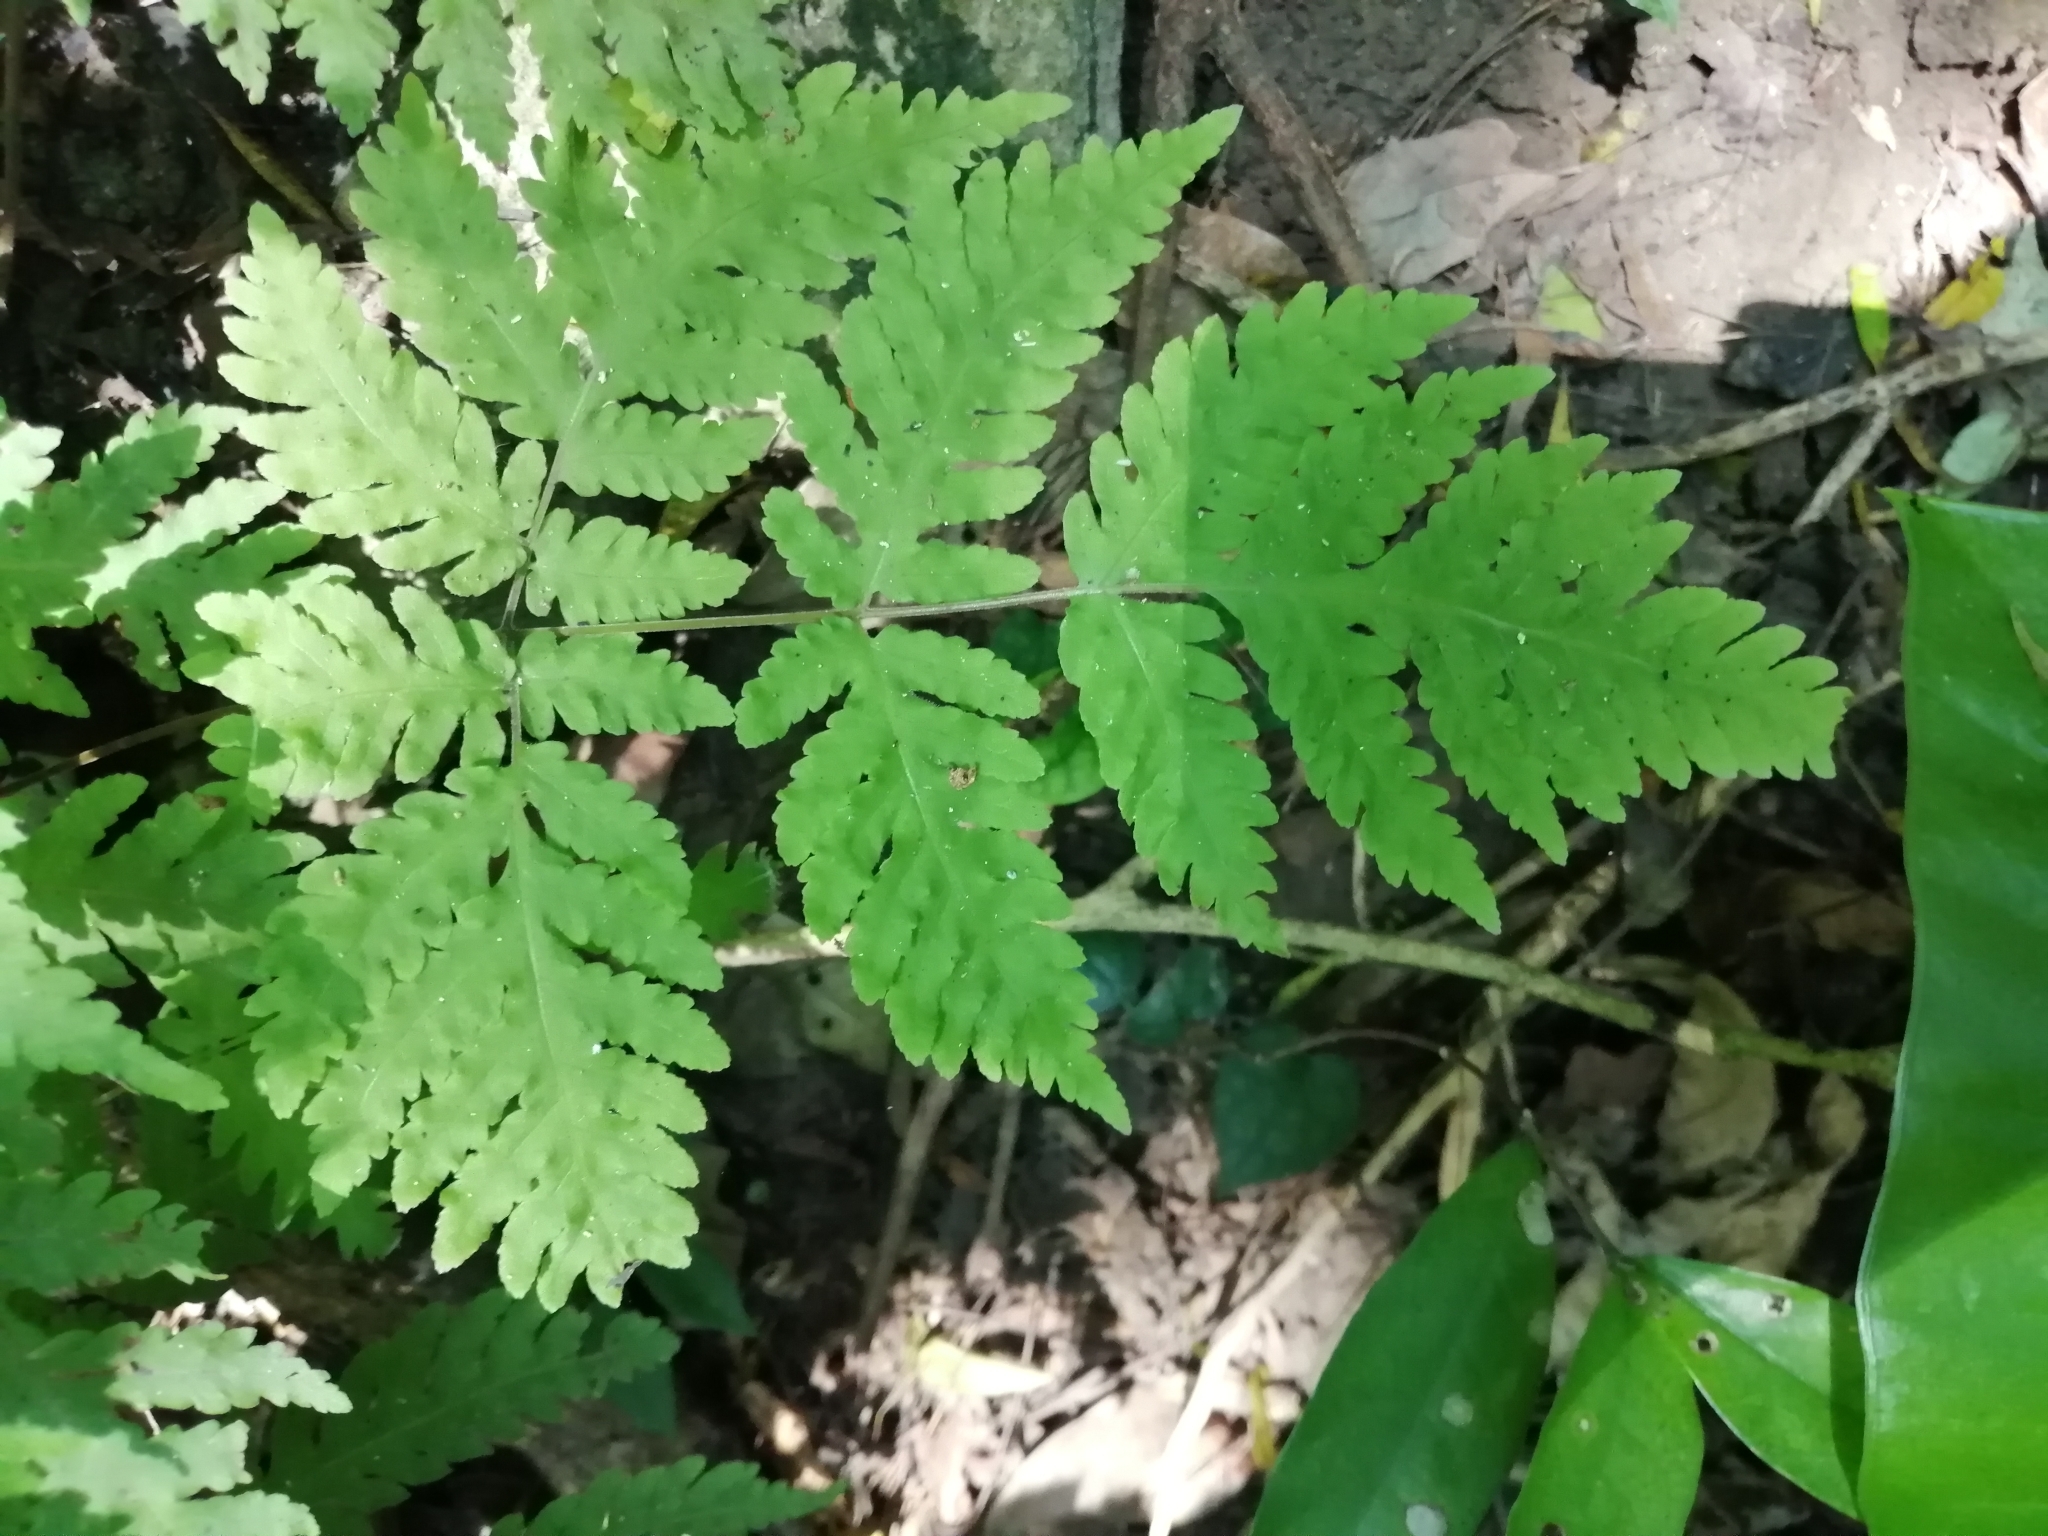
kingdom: Plantae
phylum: Tracheophyta
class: Polypodiopsida
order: Polypodiales
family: Tectariaceae
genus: Tectaria
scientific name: Tectaria membranacea
